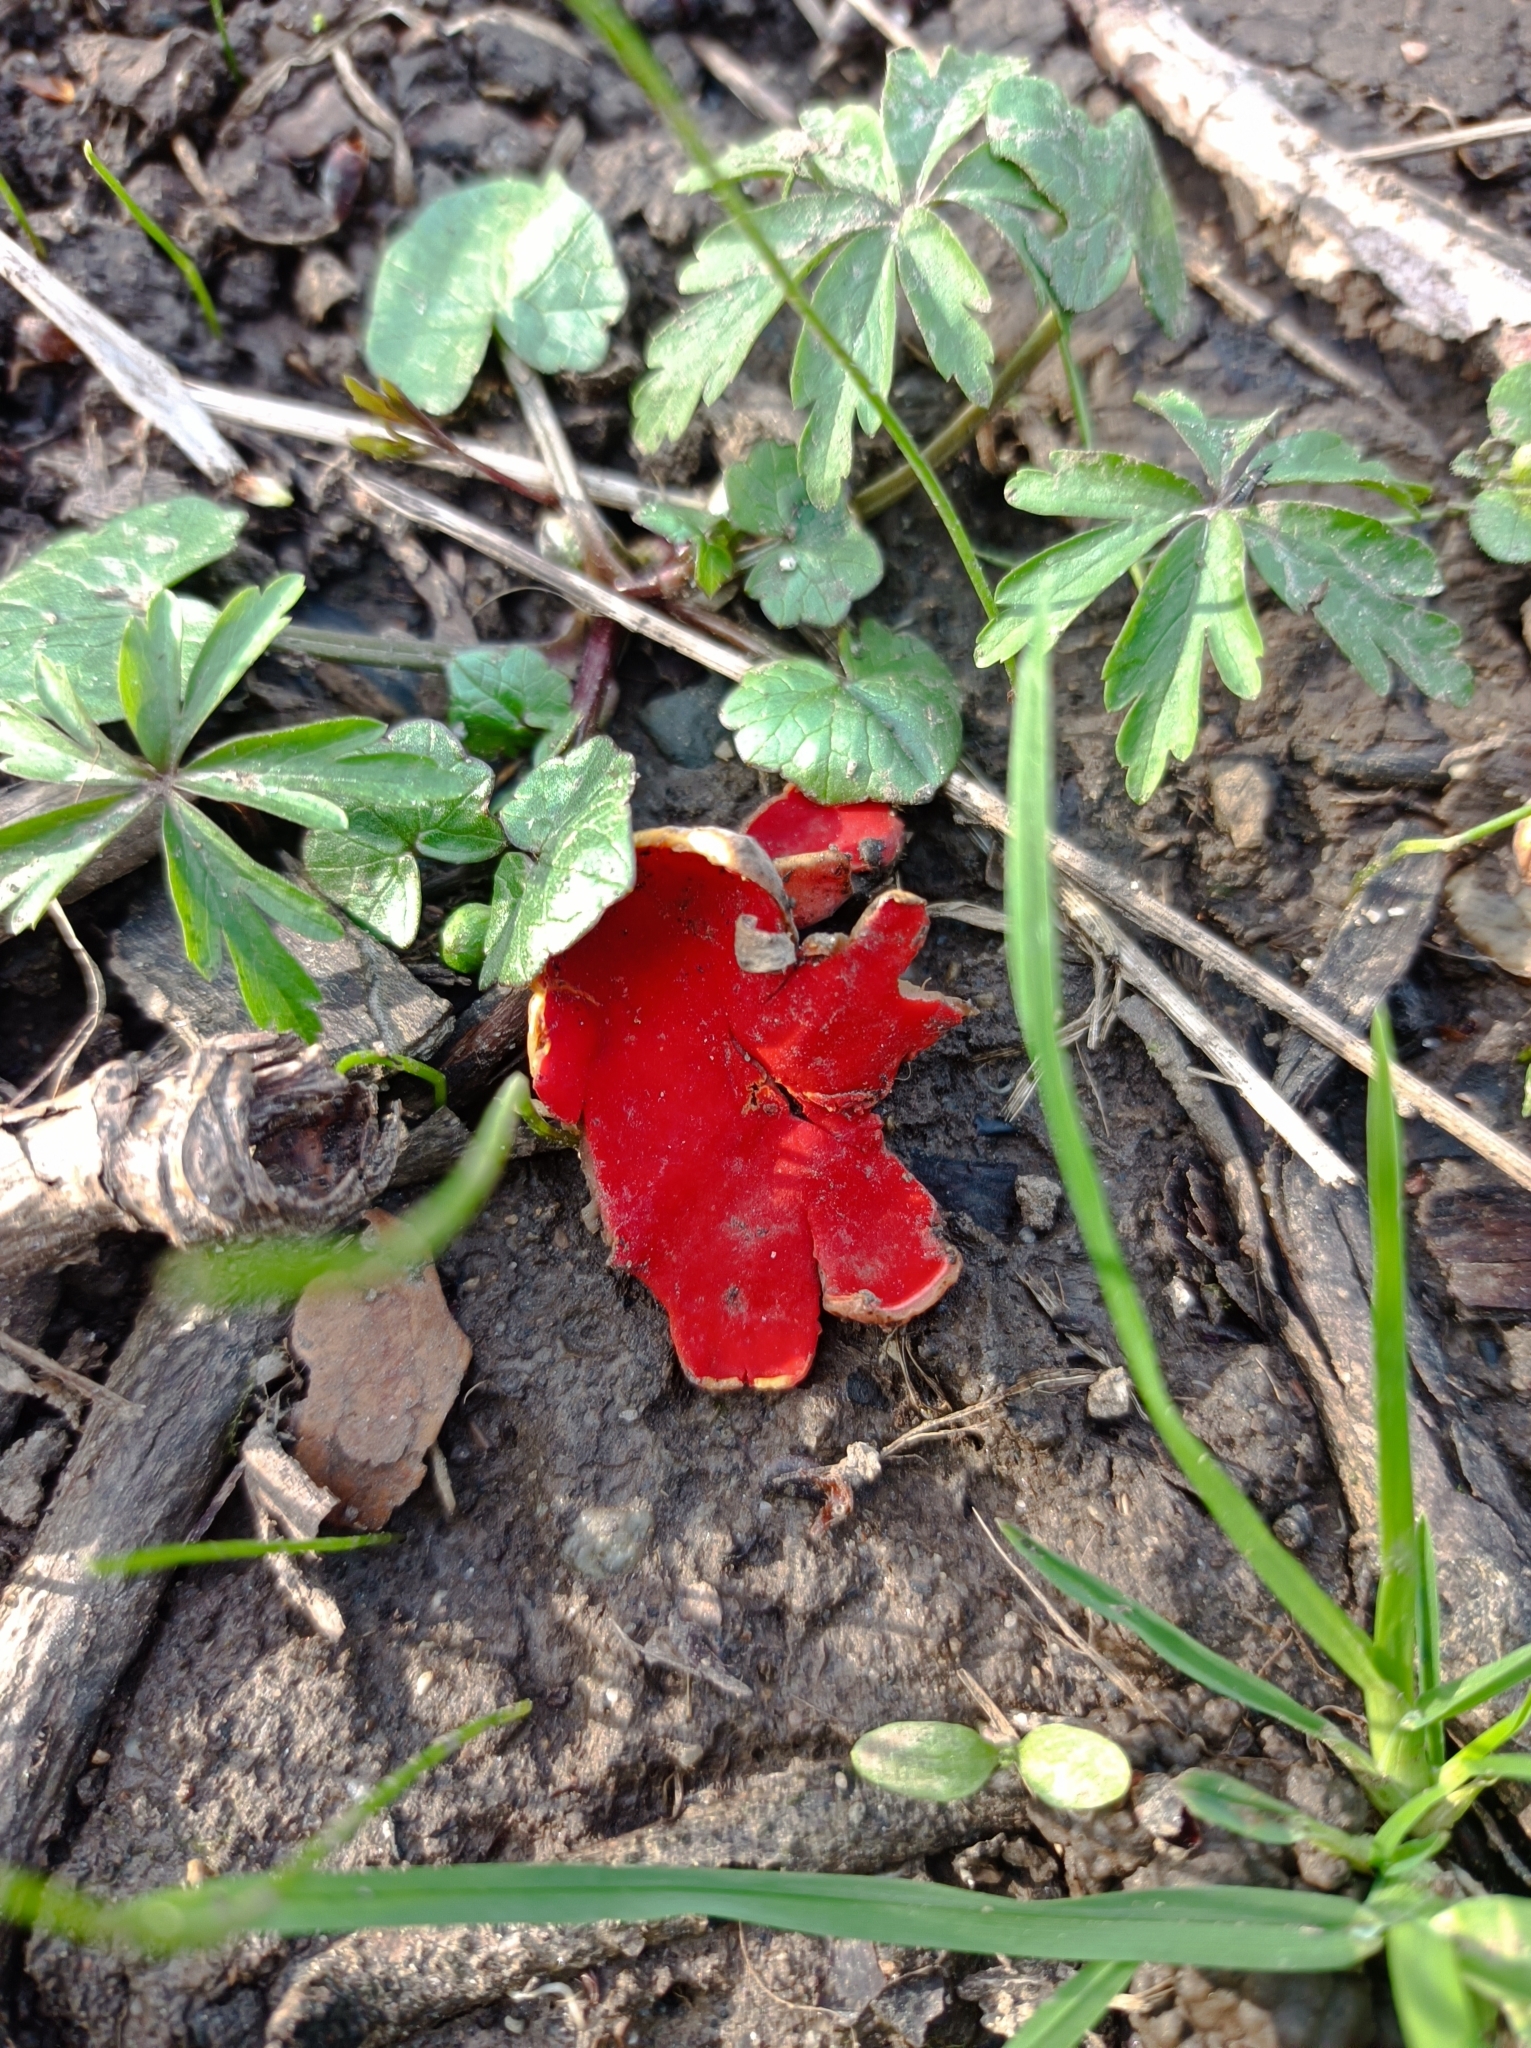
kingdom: Fungi
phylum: Ascomycota
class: Pezizomycetes
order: Pezizales
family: Sarcoscyphaceae
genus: Sarcoscypha
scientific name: Sarcoscypha
